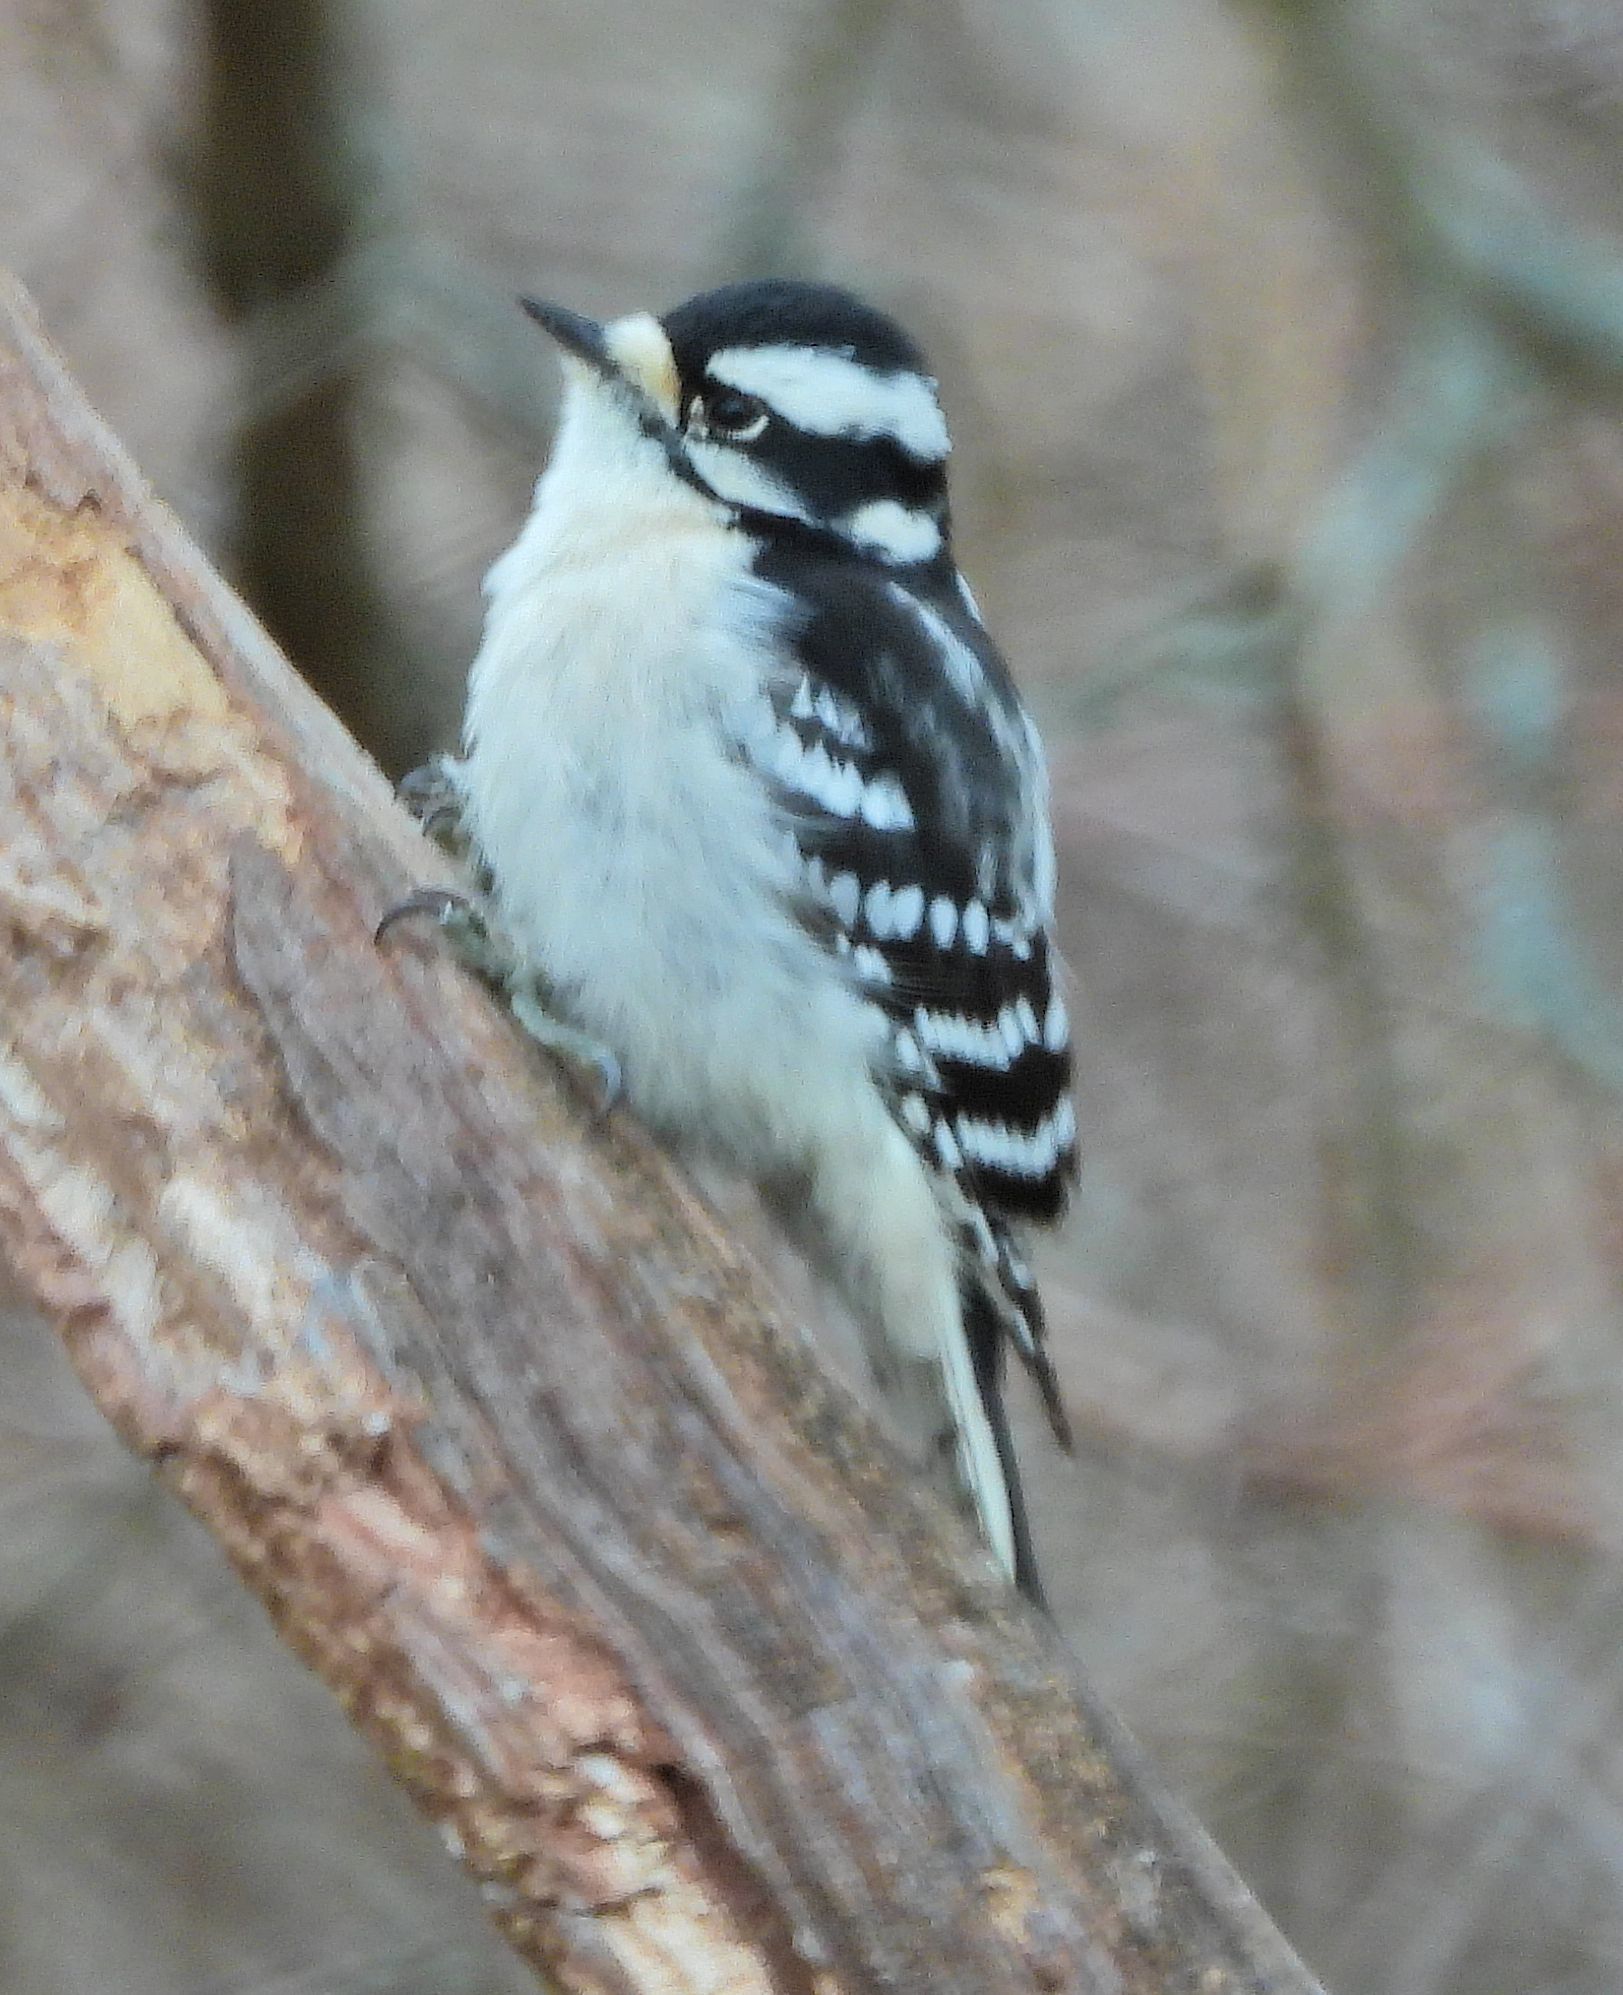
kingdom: Animalia
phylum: Chordata
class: Aves
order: Piciformes
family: Picidae
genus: Dryobates
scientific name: Dryobates pubescens
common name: Downy woodpecker
